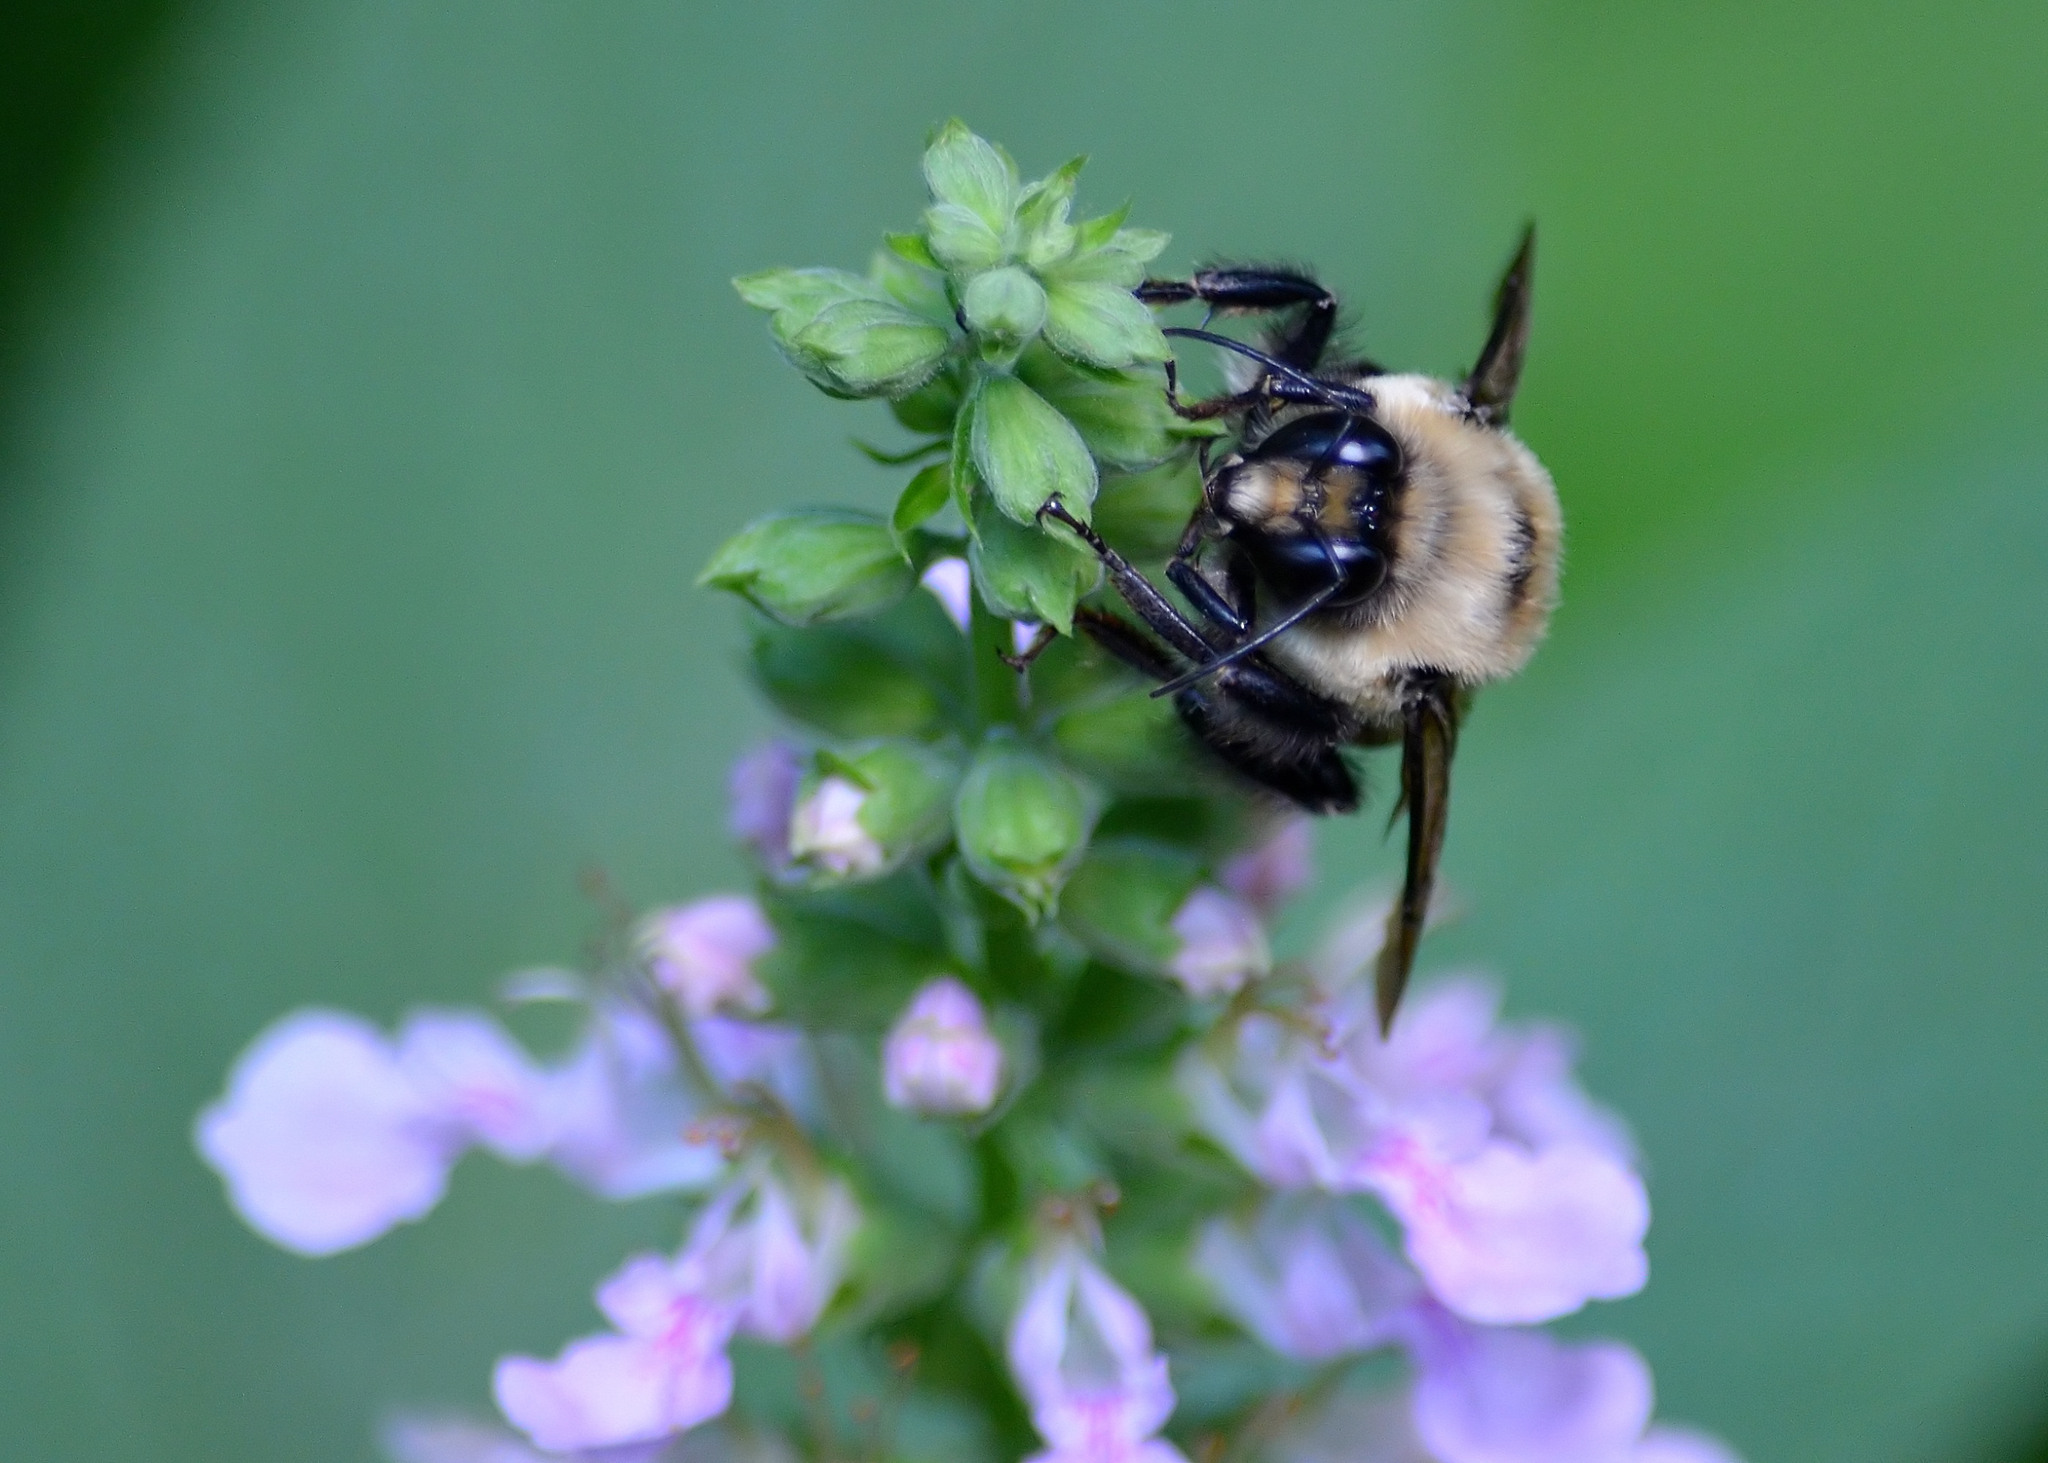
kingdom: Animalia
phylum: Arthropoda
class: Insecta
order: Hymenoptera
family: Apidae
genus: Bombus
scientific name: Bombus griseocollis
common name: Brown-belted bumble bee
